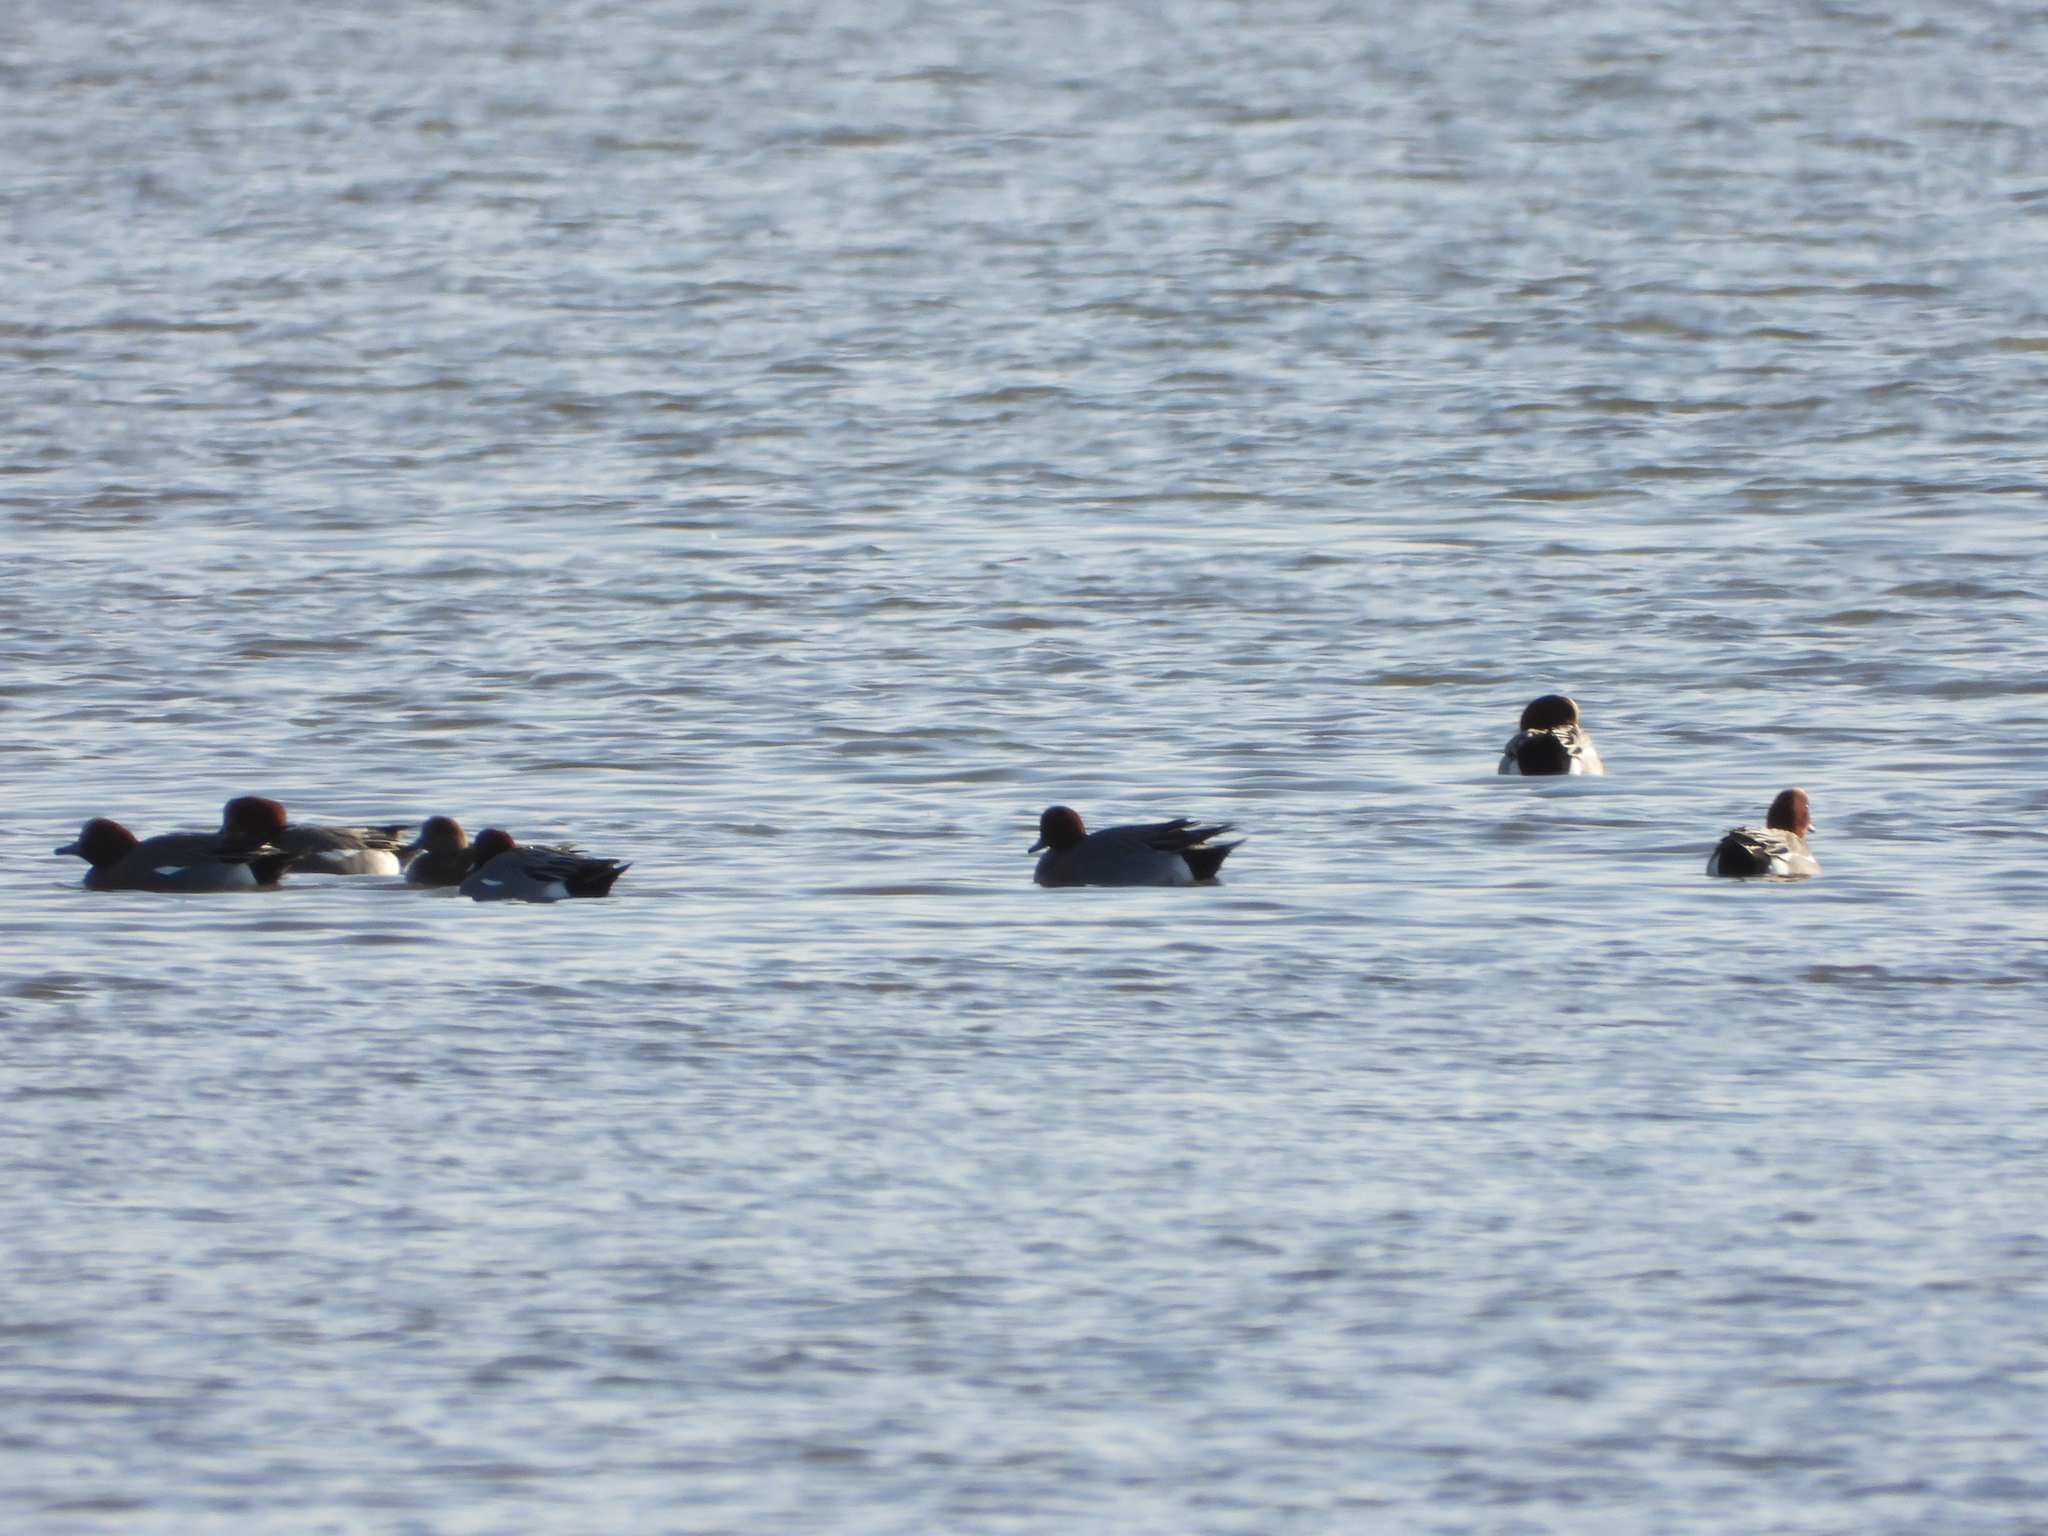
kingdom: Animalia
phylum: Chordata
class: Aves
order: Anseriformes
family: Anatidae
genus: Mareca
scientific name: Mareca penelope
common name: Eurasian wigeon
